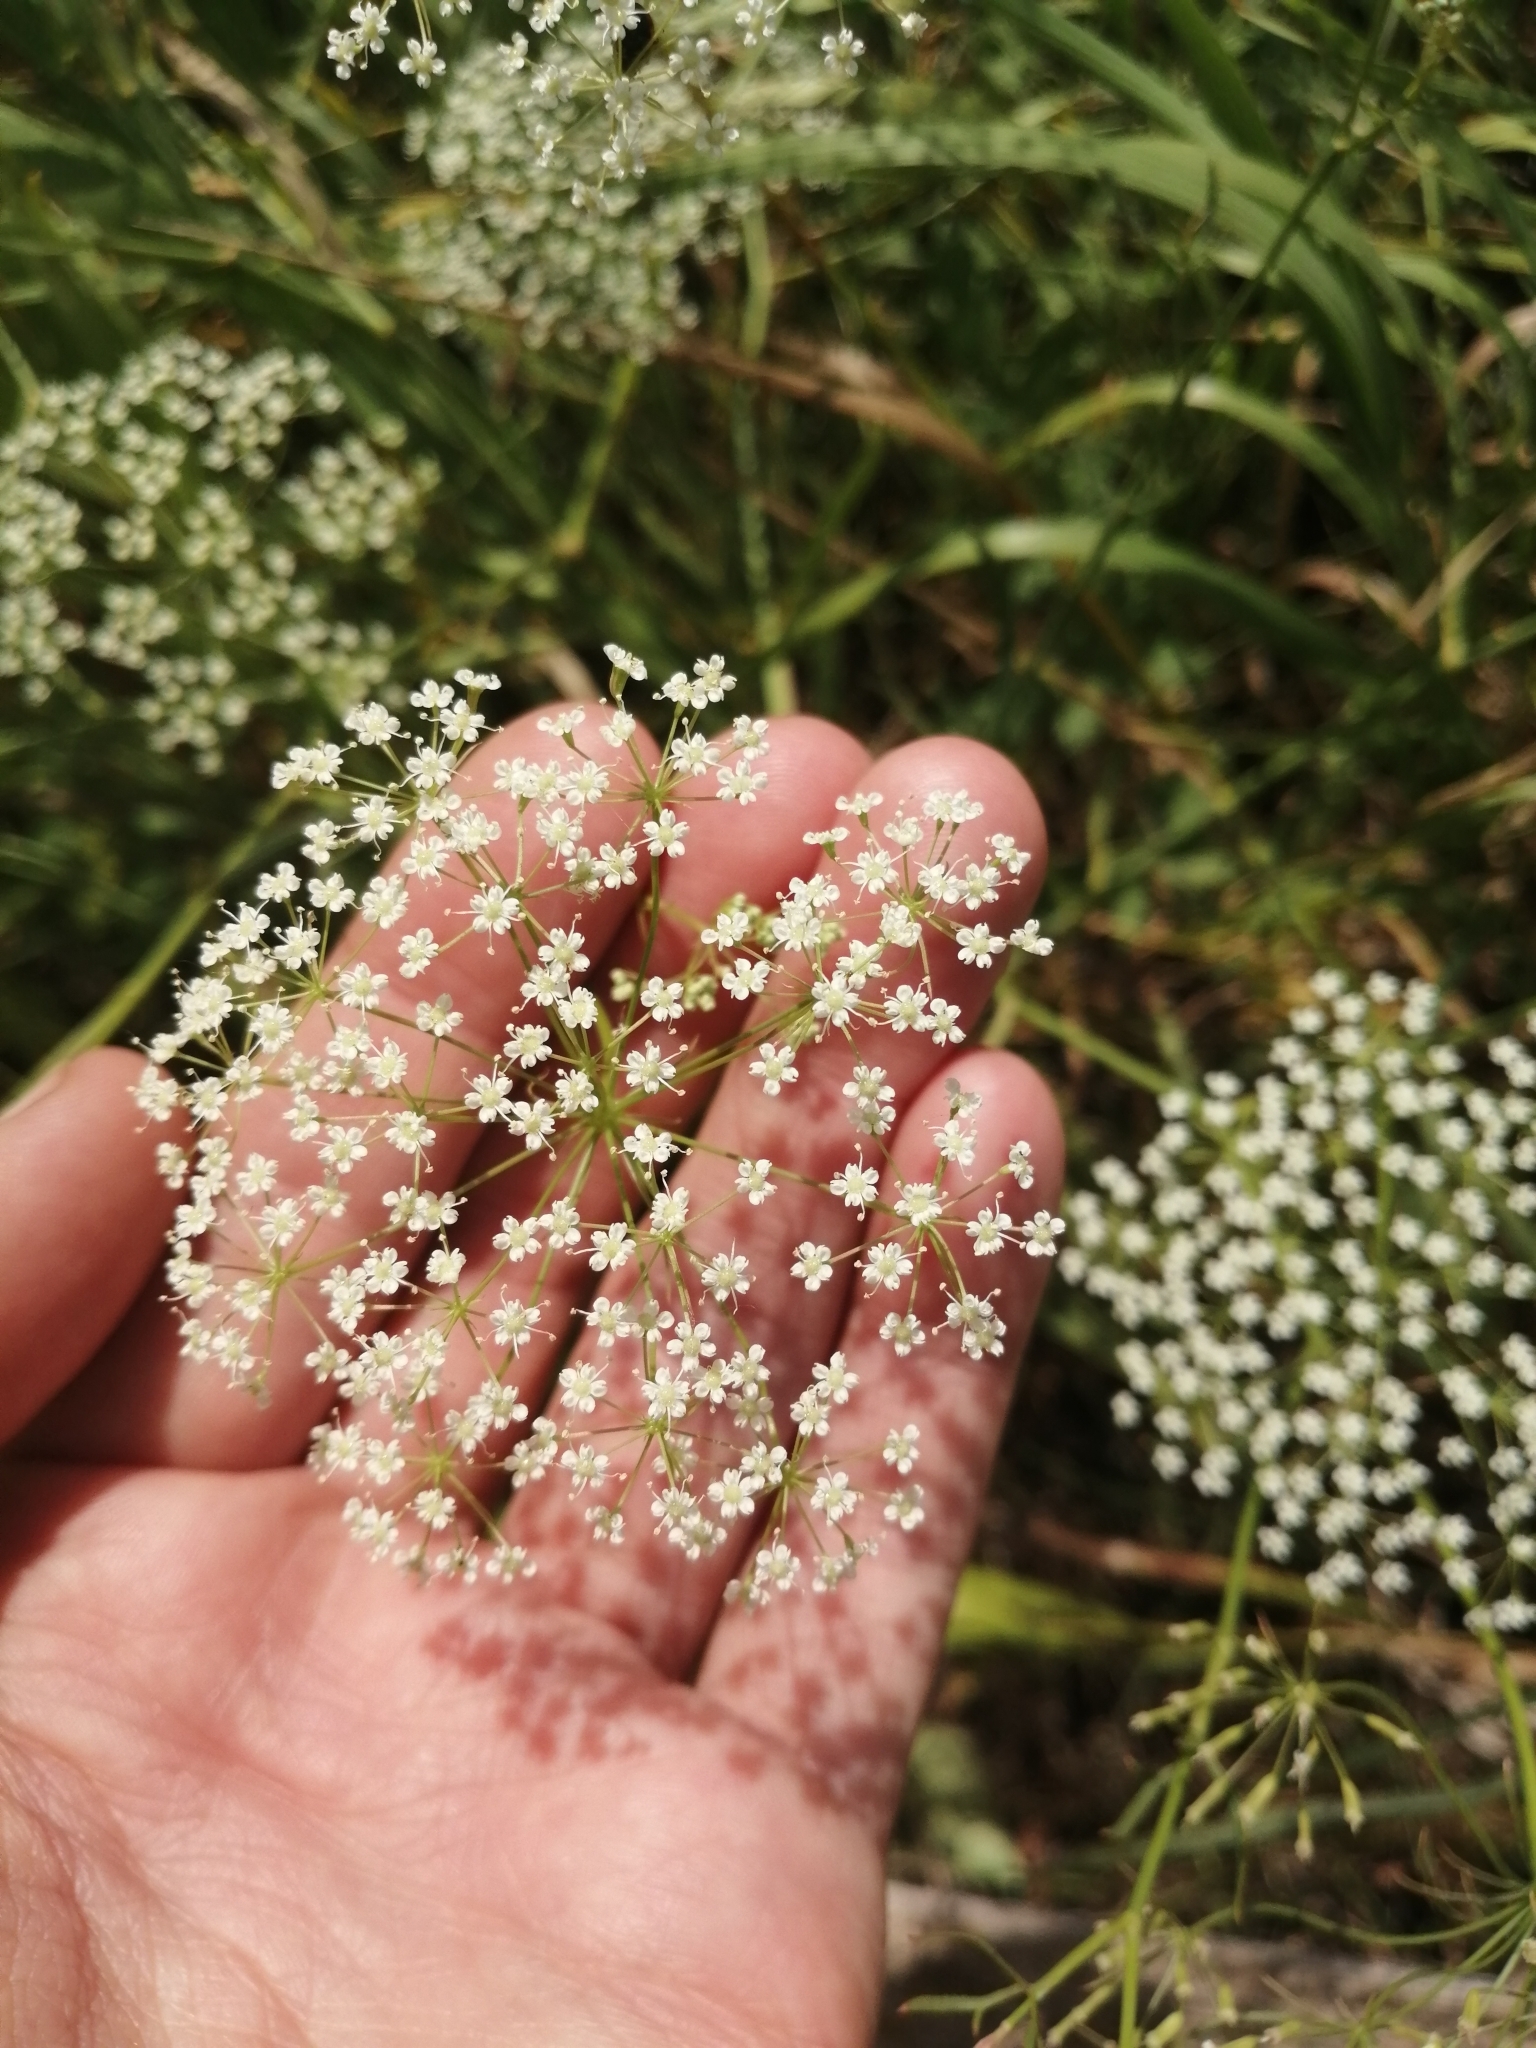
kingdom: Plantae
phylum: Tracheophyta
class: Magnoliopsida
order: Apiales
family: Apiaceae
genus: Falcaria
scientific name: Falcaria vulgaris
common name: Longleaf
